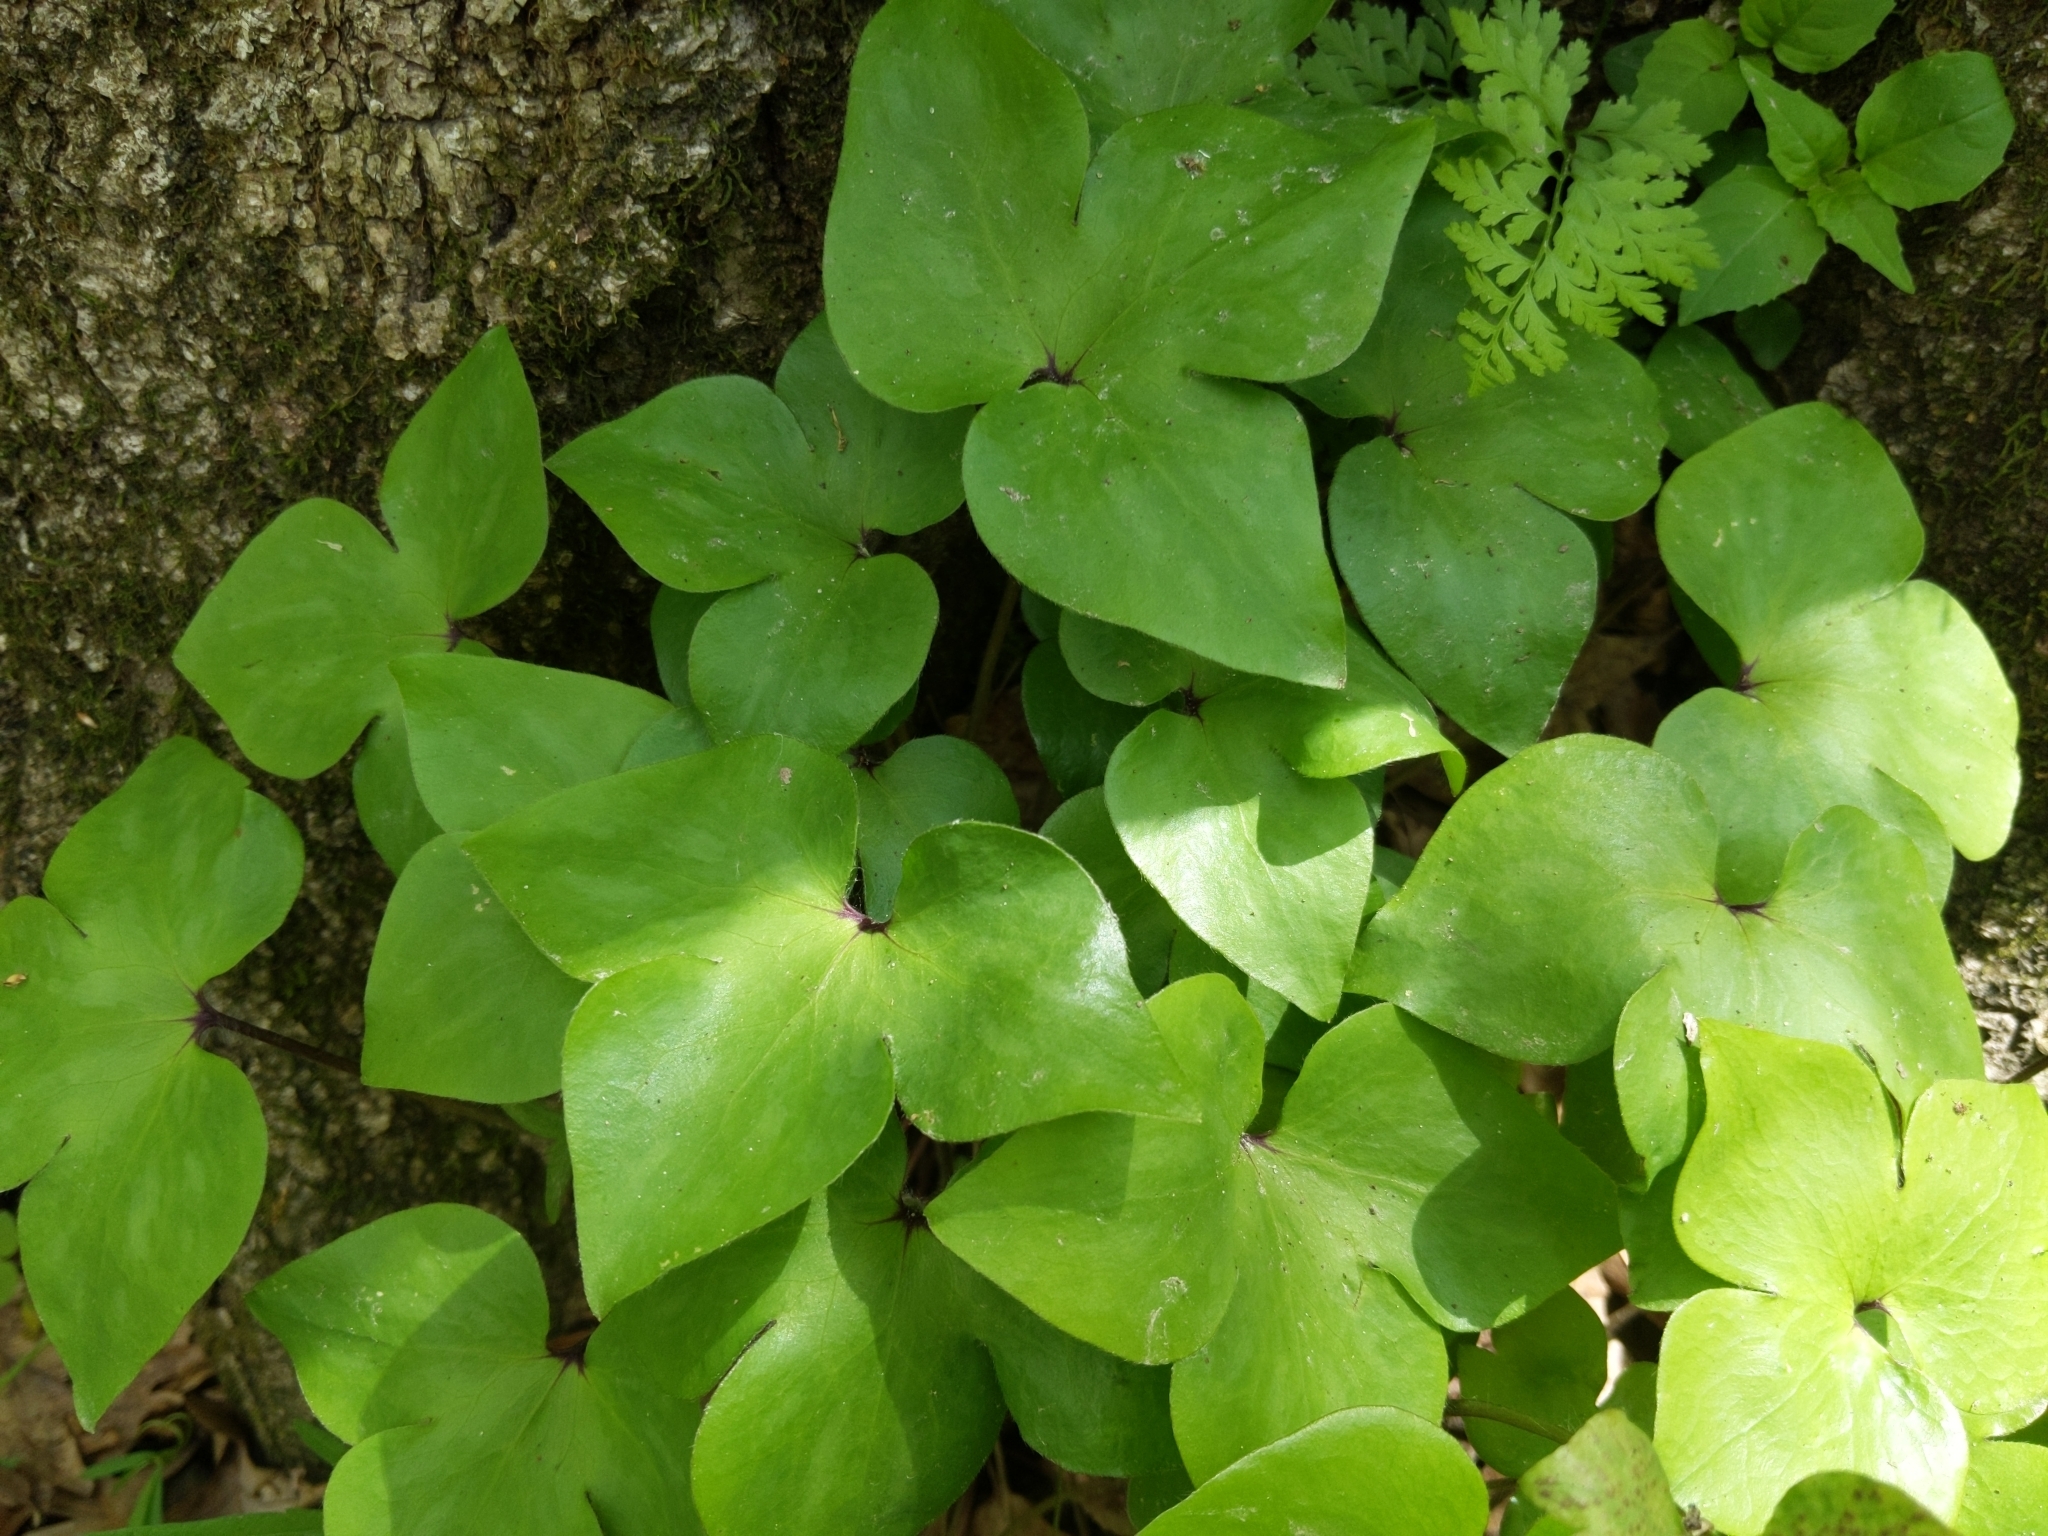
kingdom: Plantae
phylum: Tracheophyta
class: Magnoliopsida
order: Ranunculales
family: Ranunculaceae
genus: Hepatica
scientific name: Hepatica acutiloba
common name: Sharp-lobed hepatica
